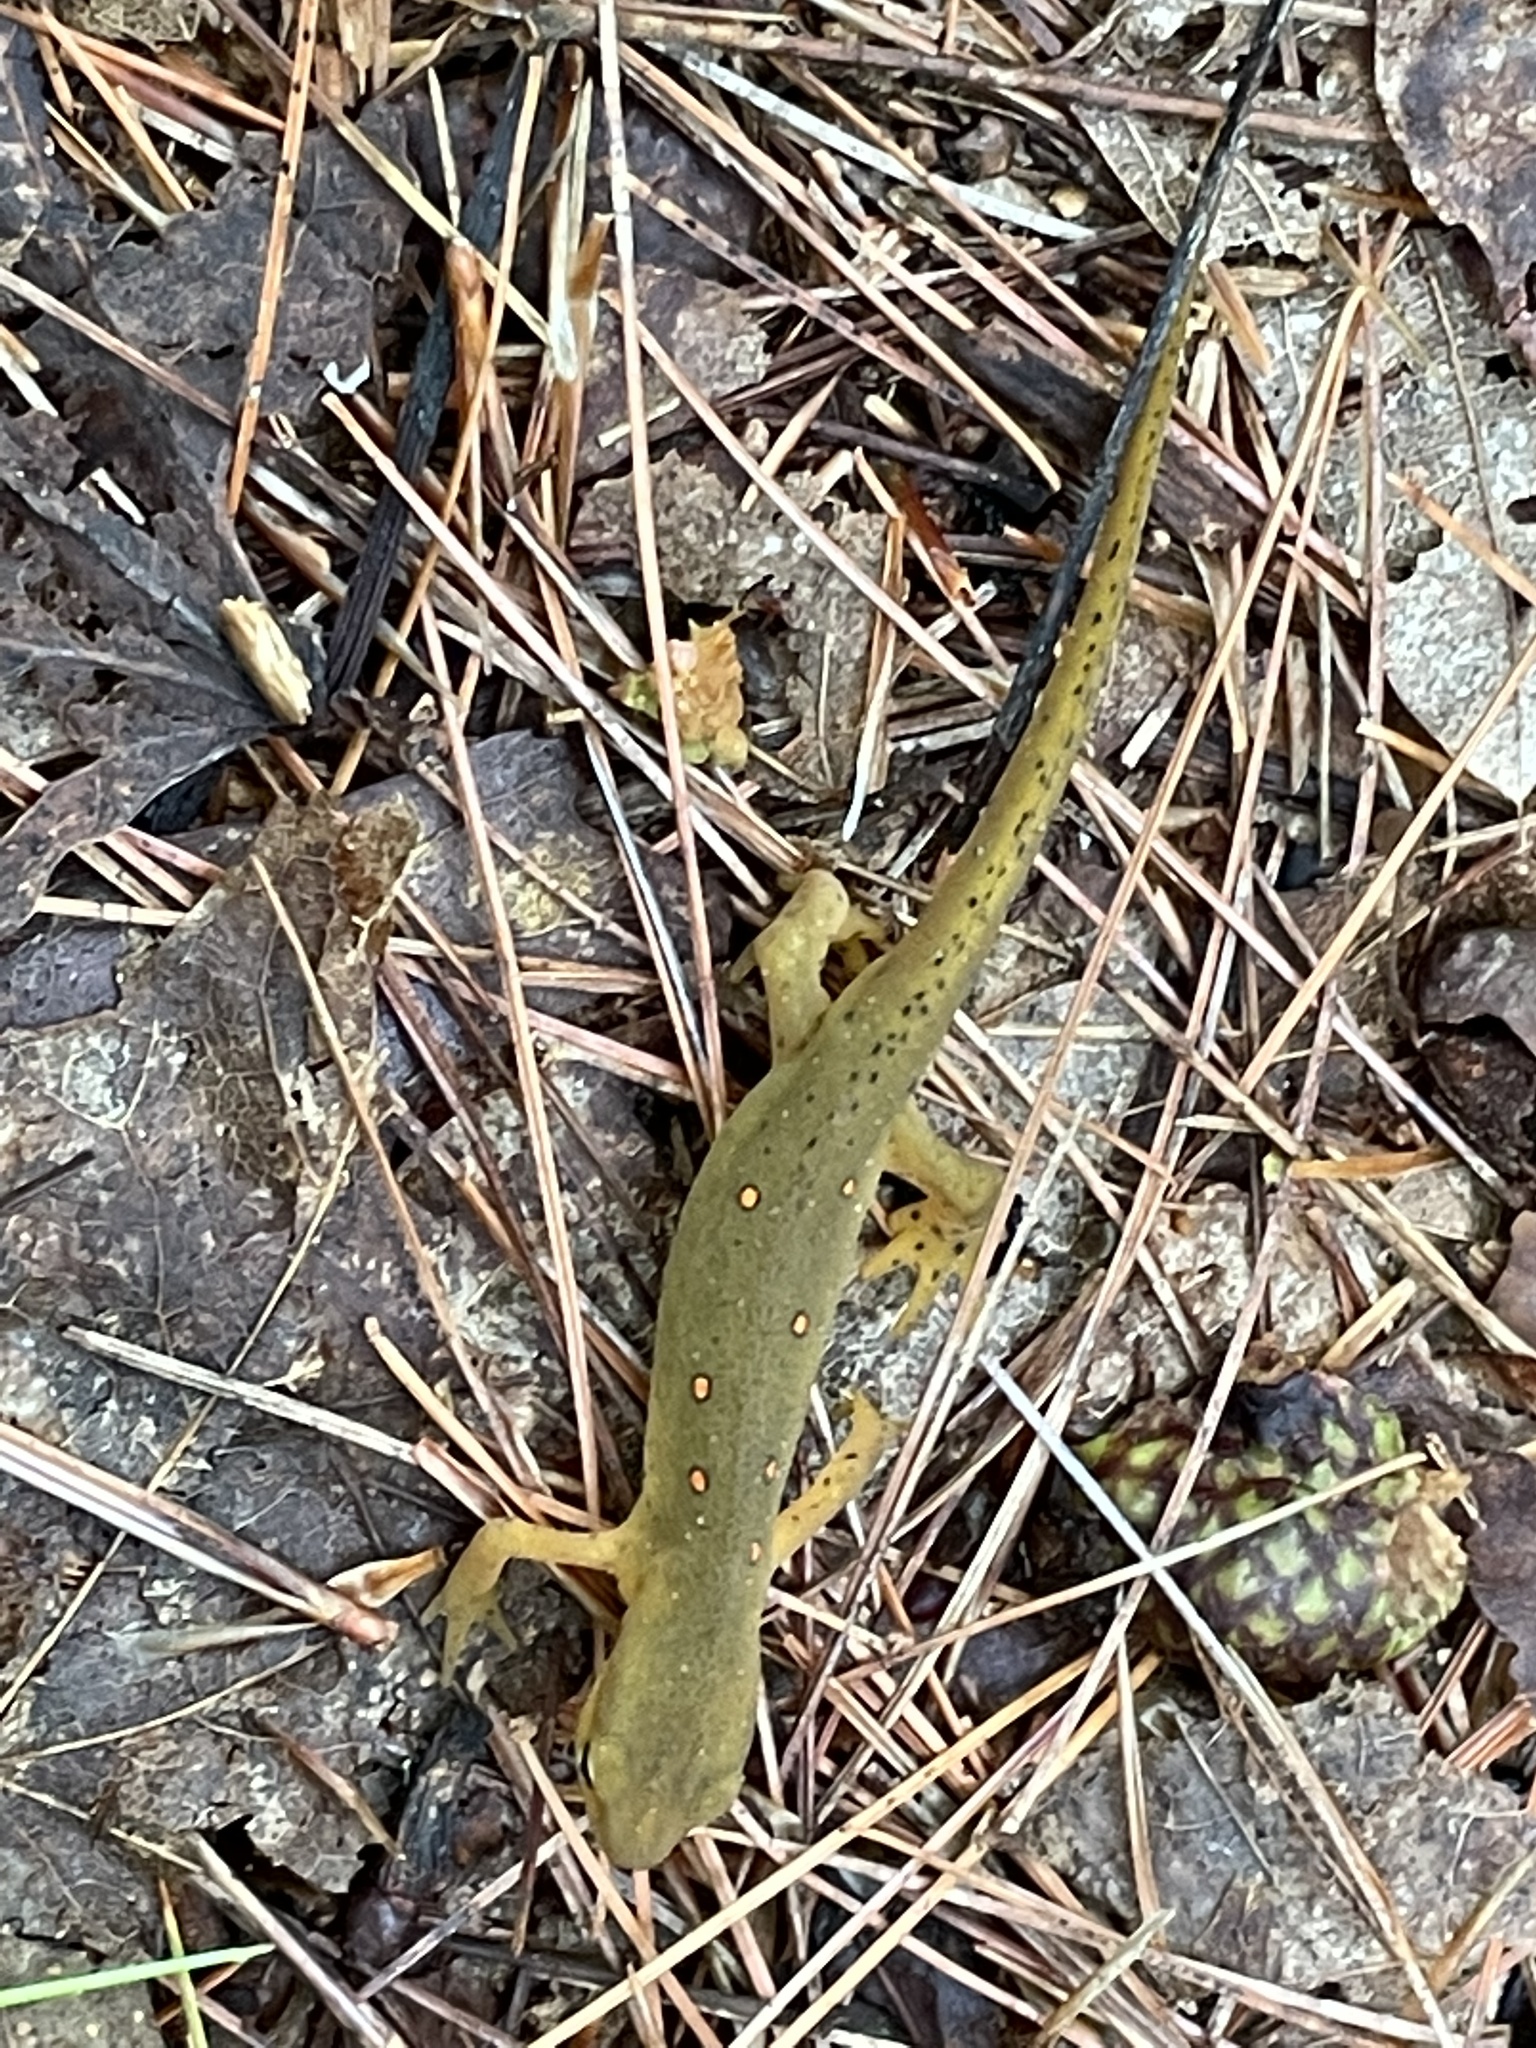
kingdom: Animalia
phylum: Chordata
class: Amphibia
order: Caudata
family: Salamandridae
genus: Notophthalmus
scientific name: Notophthalmus viridescens
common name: Eastern newt
